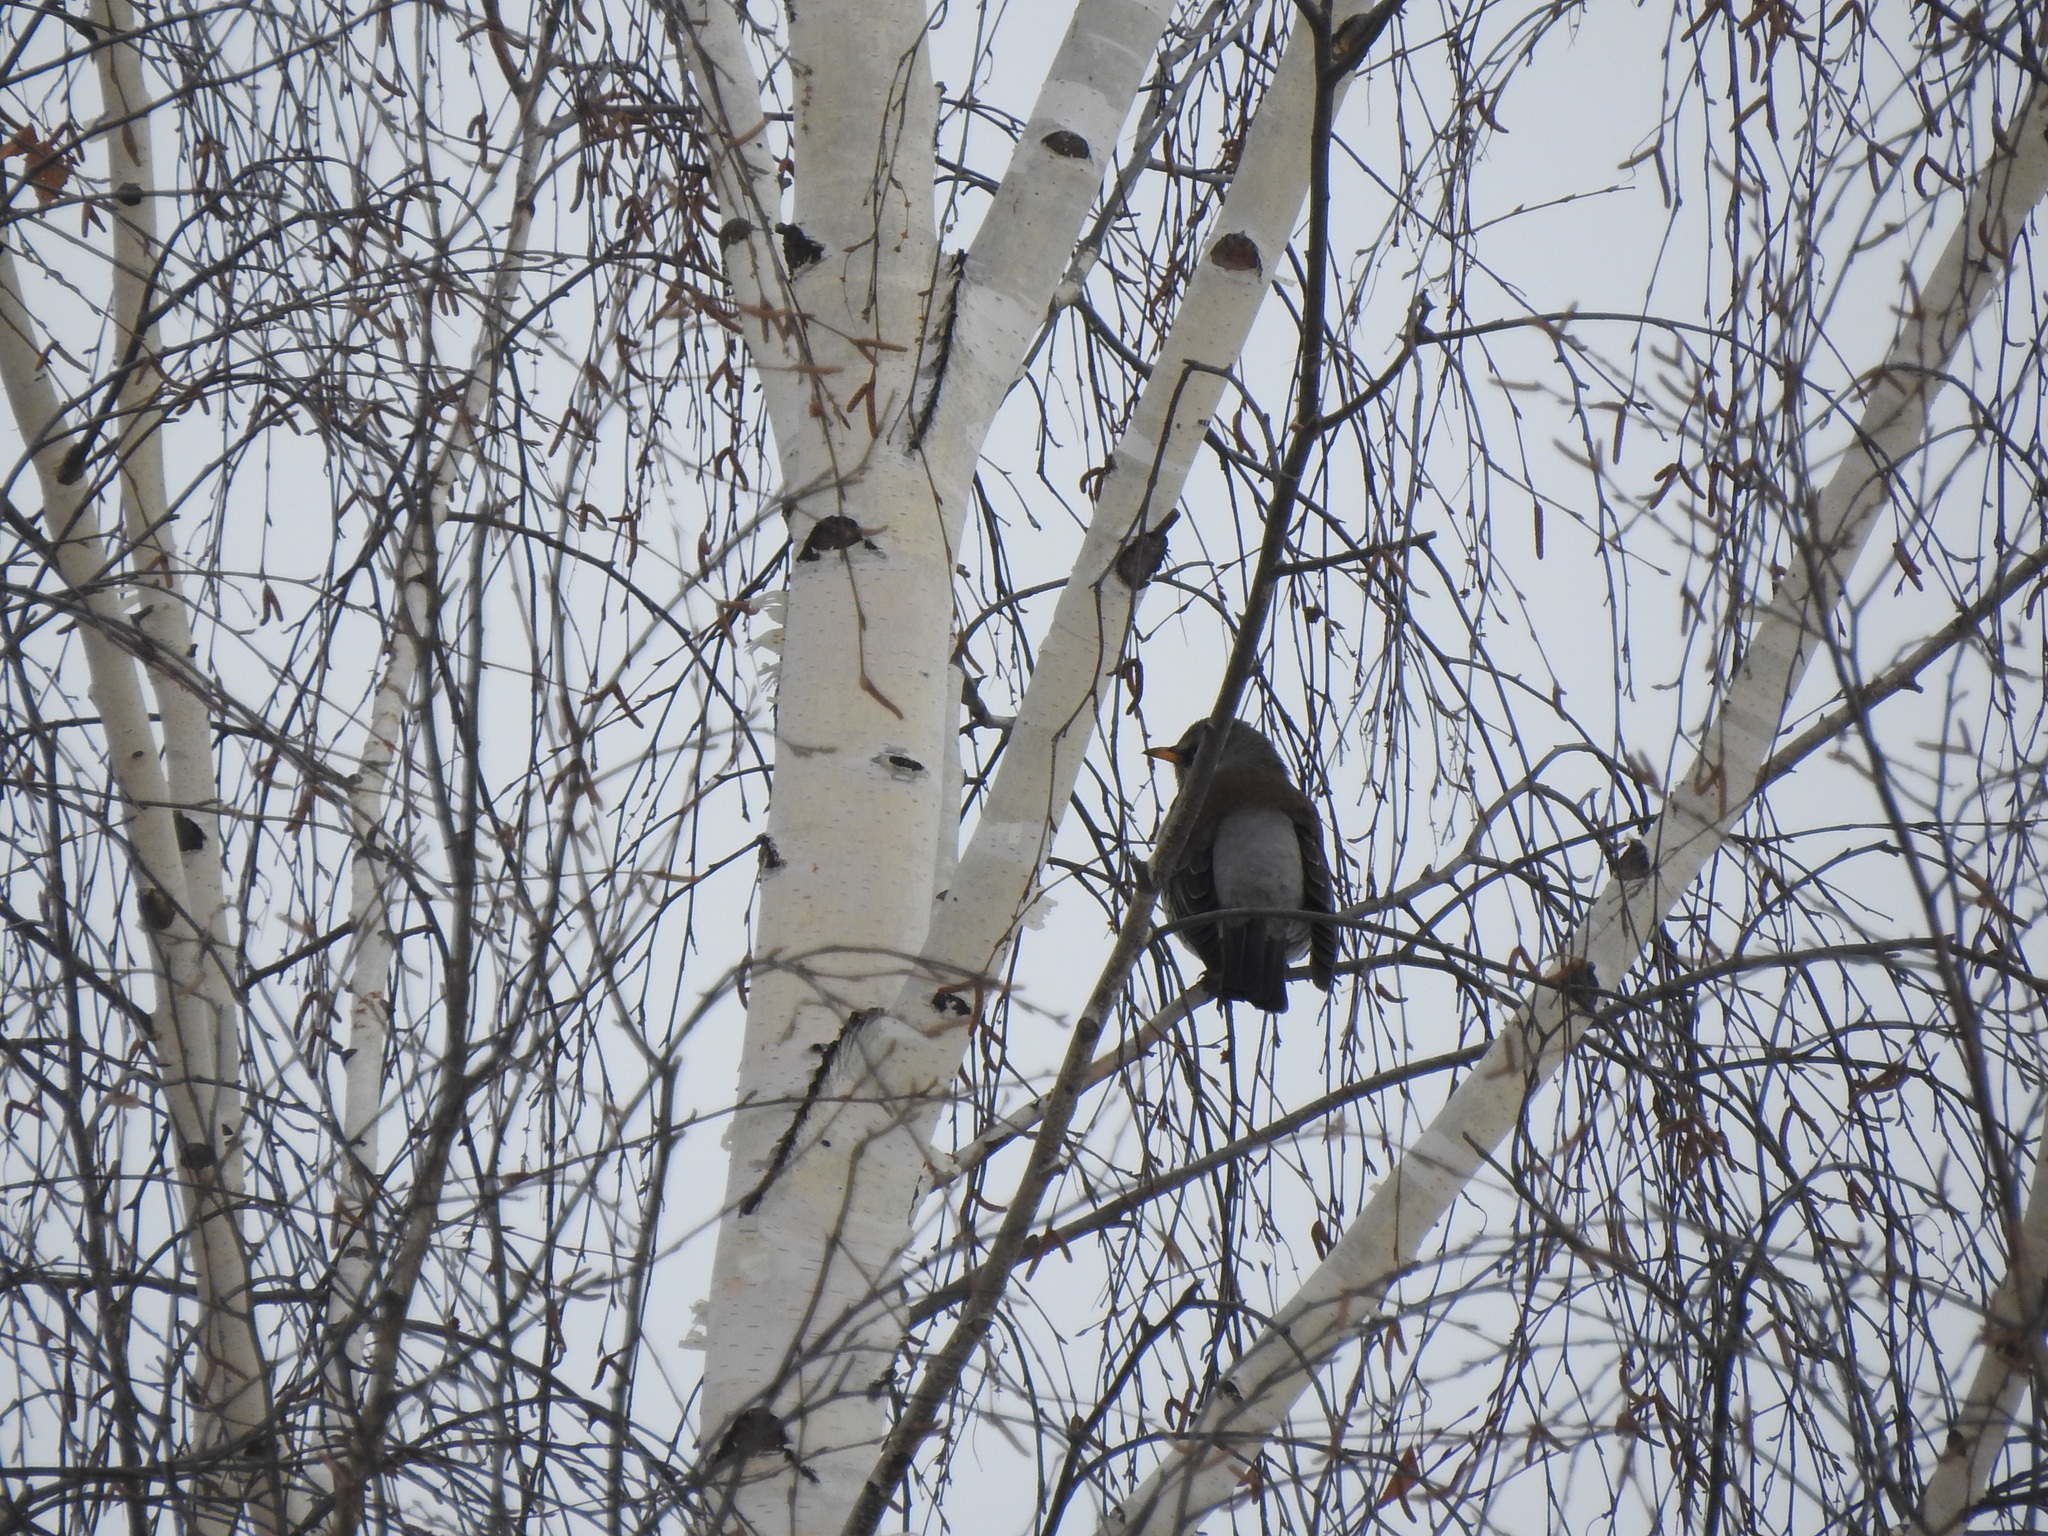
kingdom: Animalia
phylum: Chordata
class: Aves
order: Passeriformes
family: Turdidae
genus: Turdus
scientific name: Turdus pilaris
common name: Fieldfare
